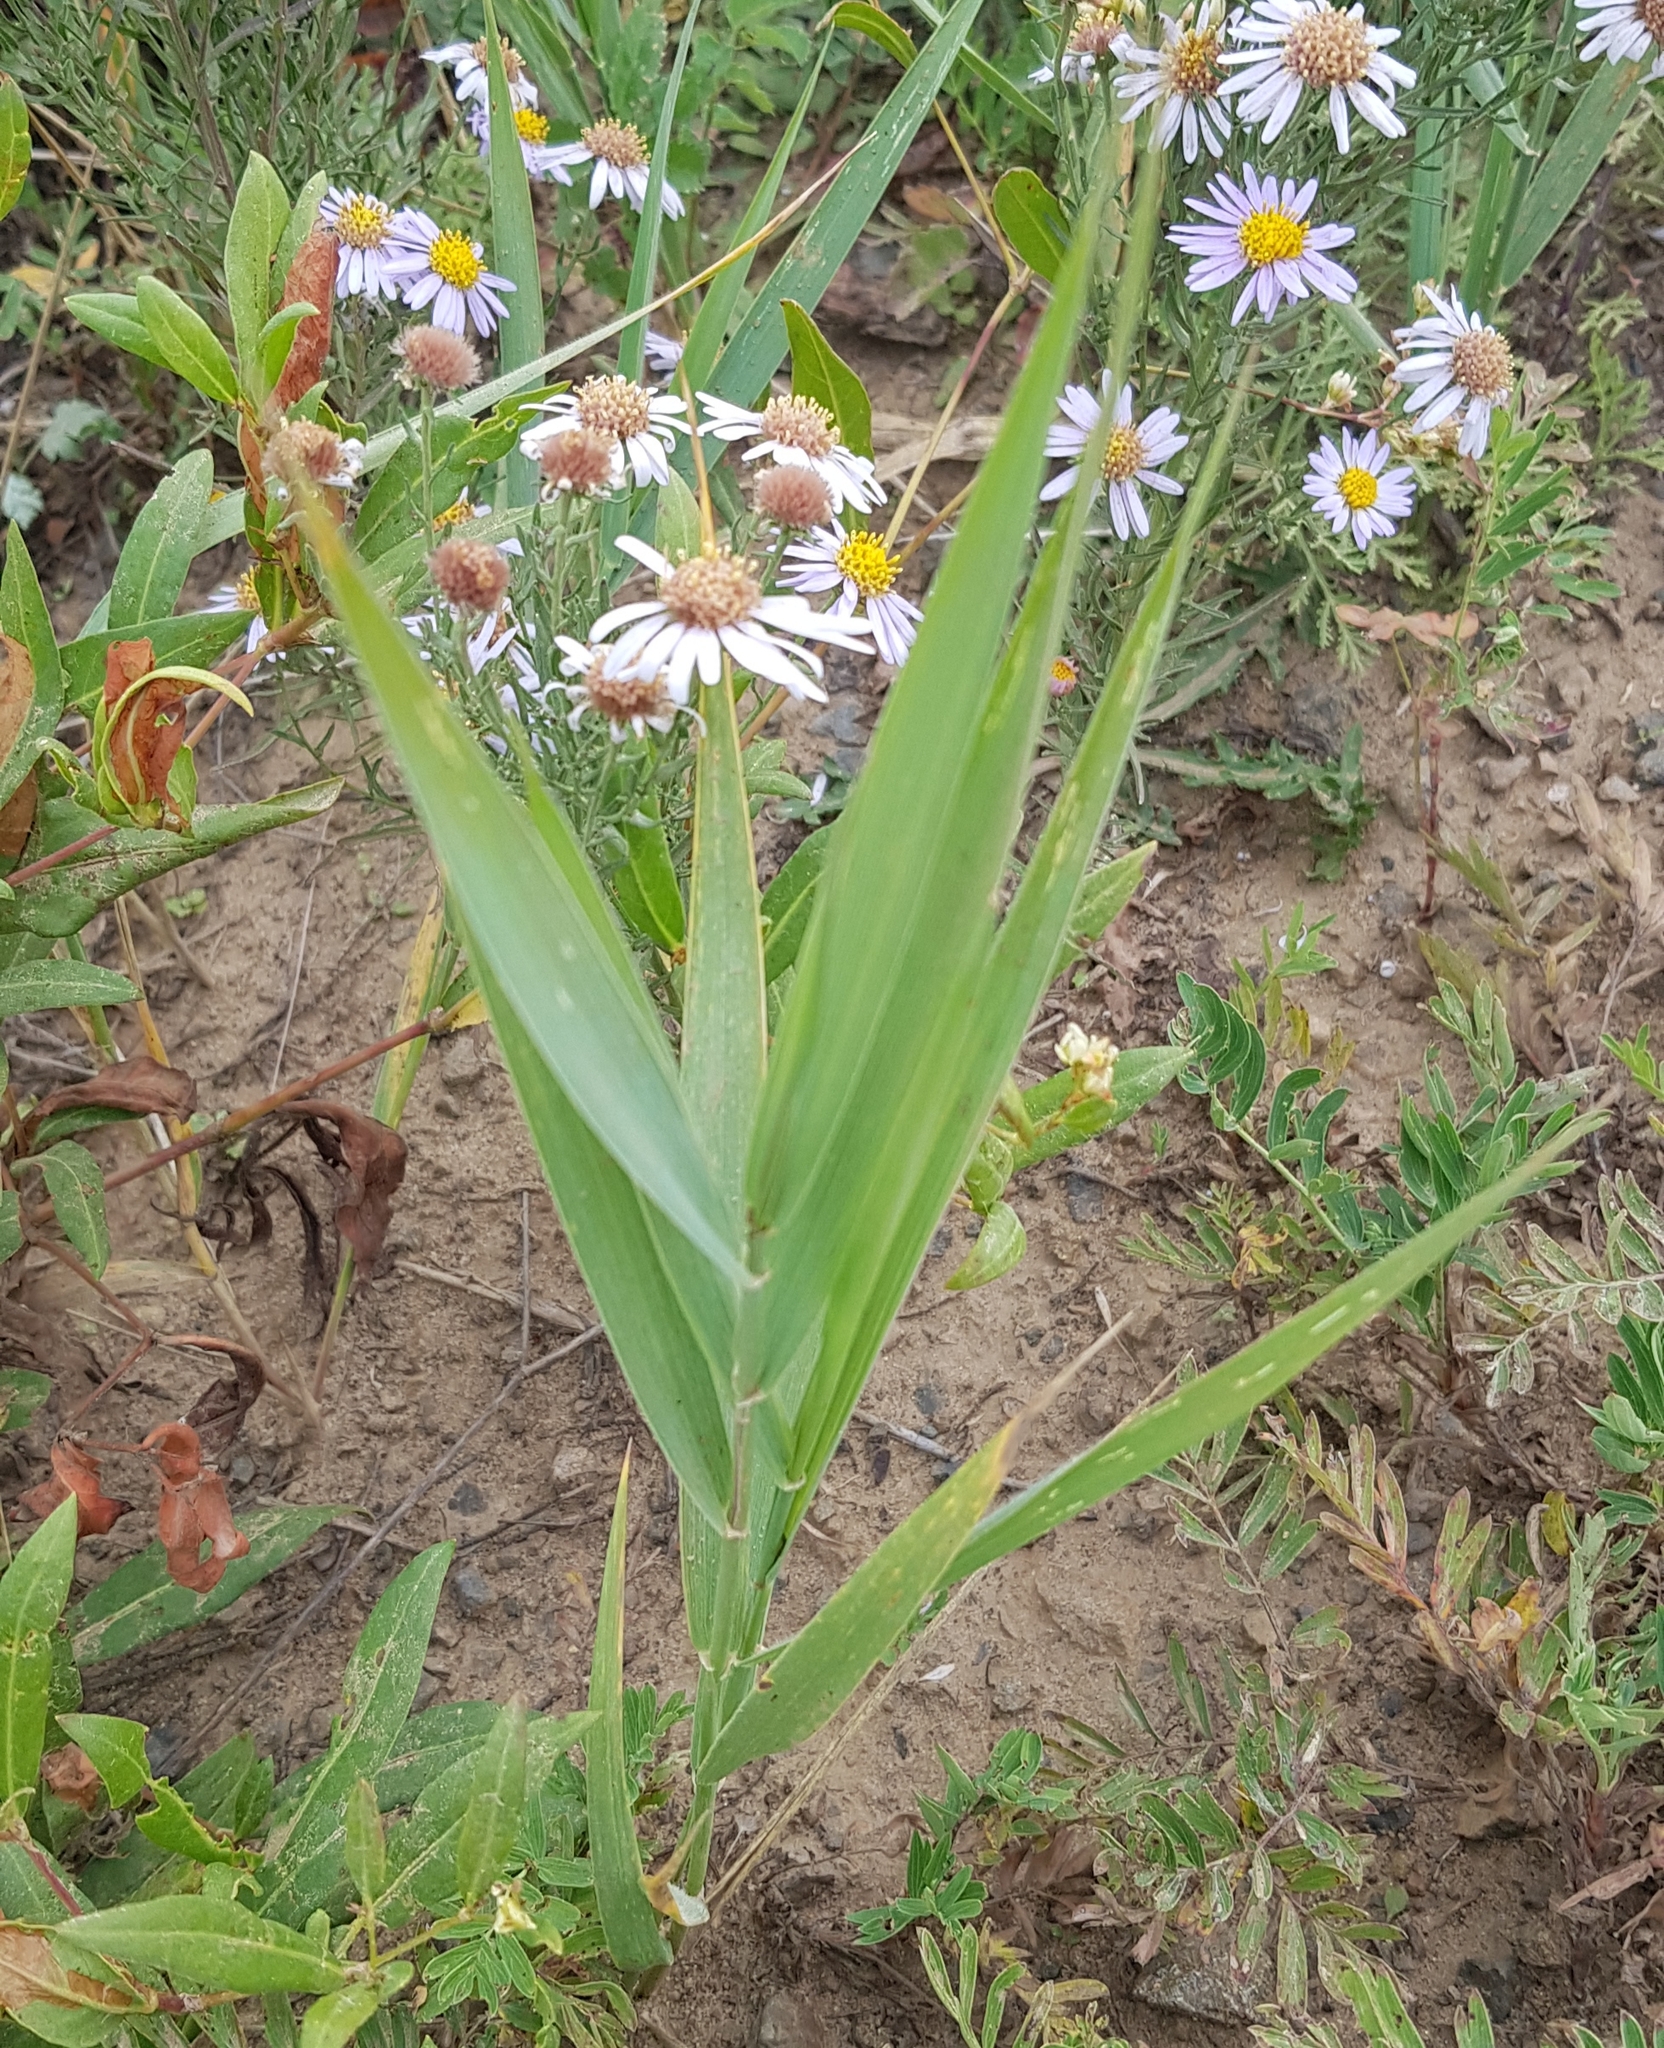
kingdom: Plantae
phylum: Tracheophyta
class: Liliopsida
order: Poales
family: Poaceae
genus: Phragmites
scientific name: Phragmites australis
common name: Common reed
